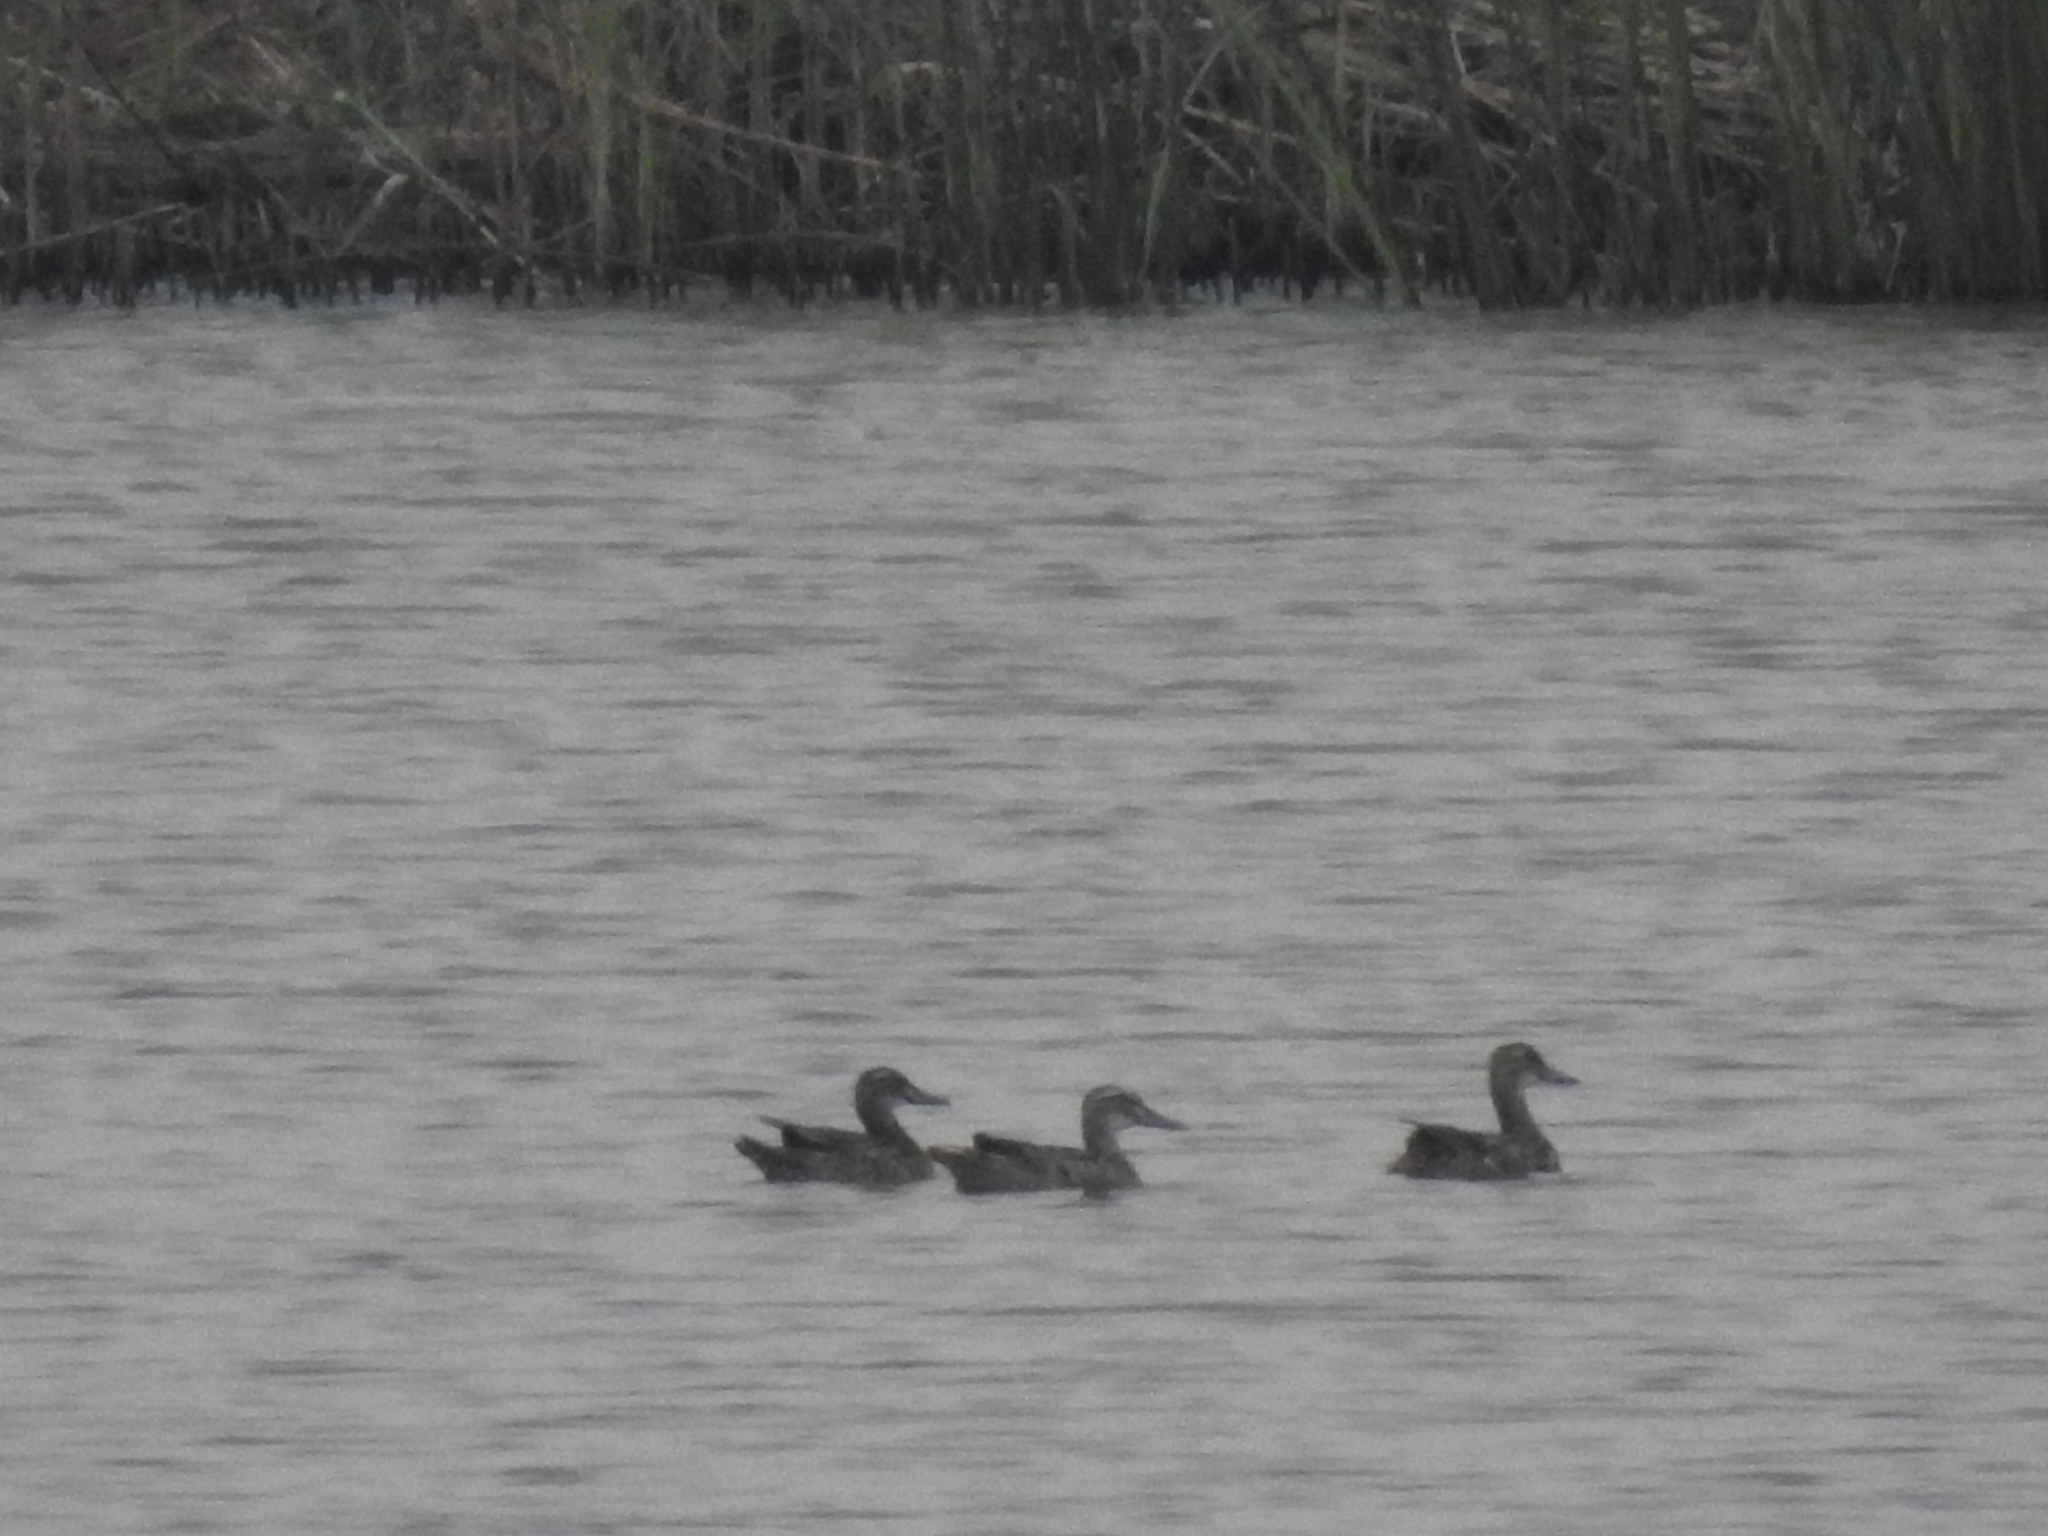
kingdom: Animalia
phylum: Chordata
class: Aves
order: Anseriformes
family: Anatidae
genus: Spatula
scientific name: Spatula querquedula
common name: Garganey
